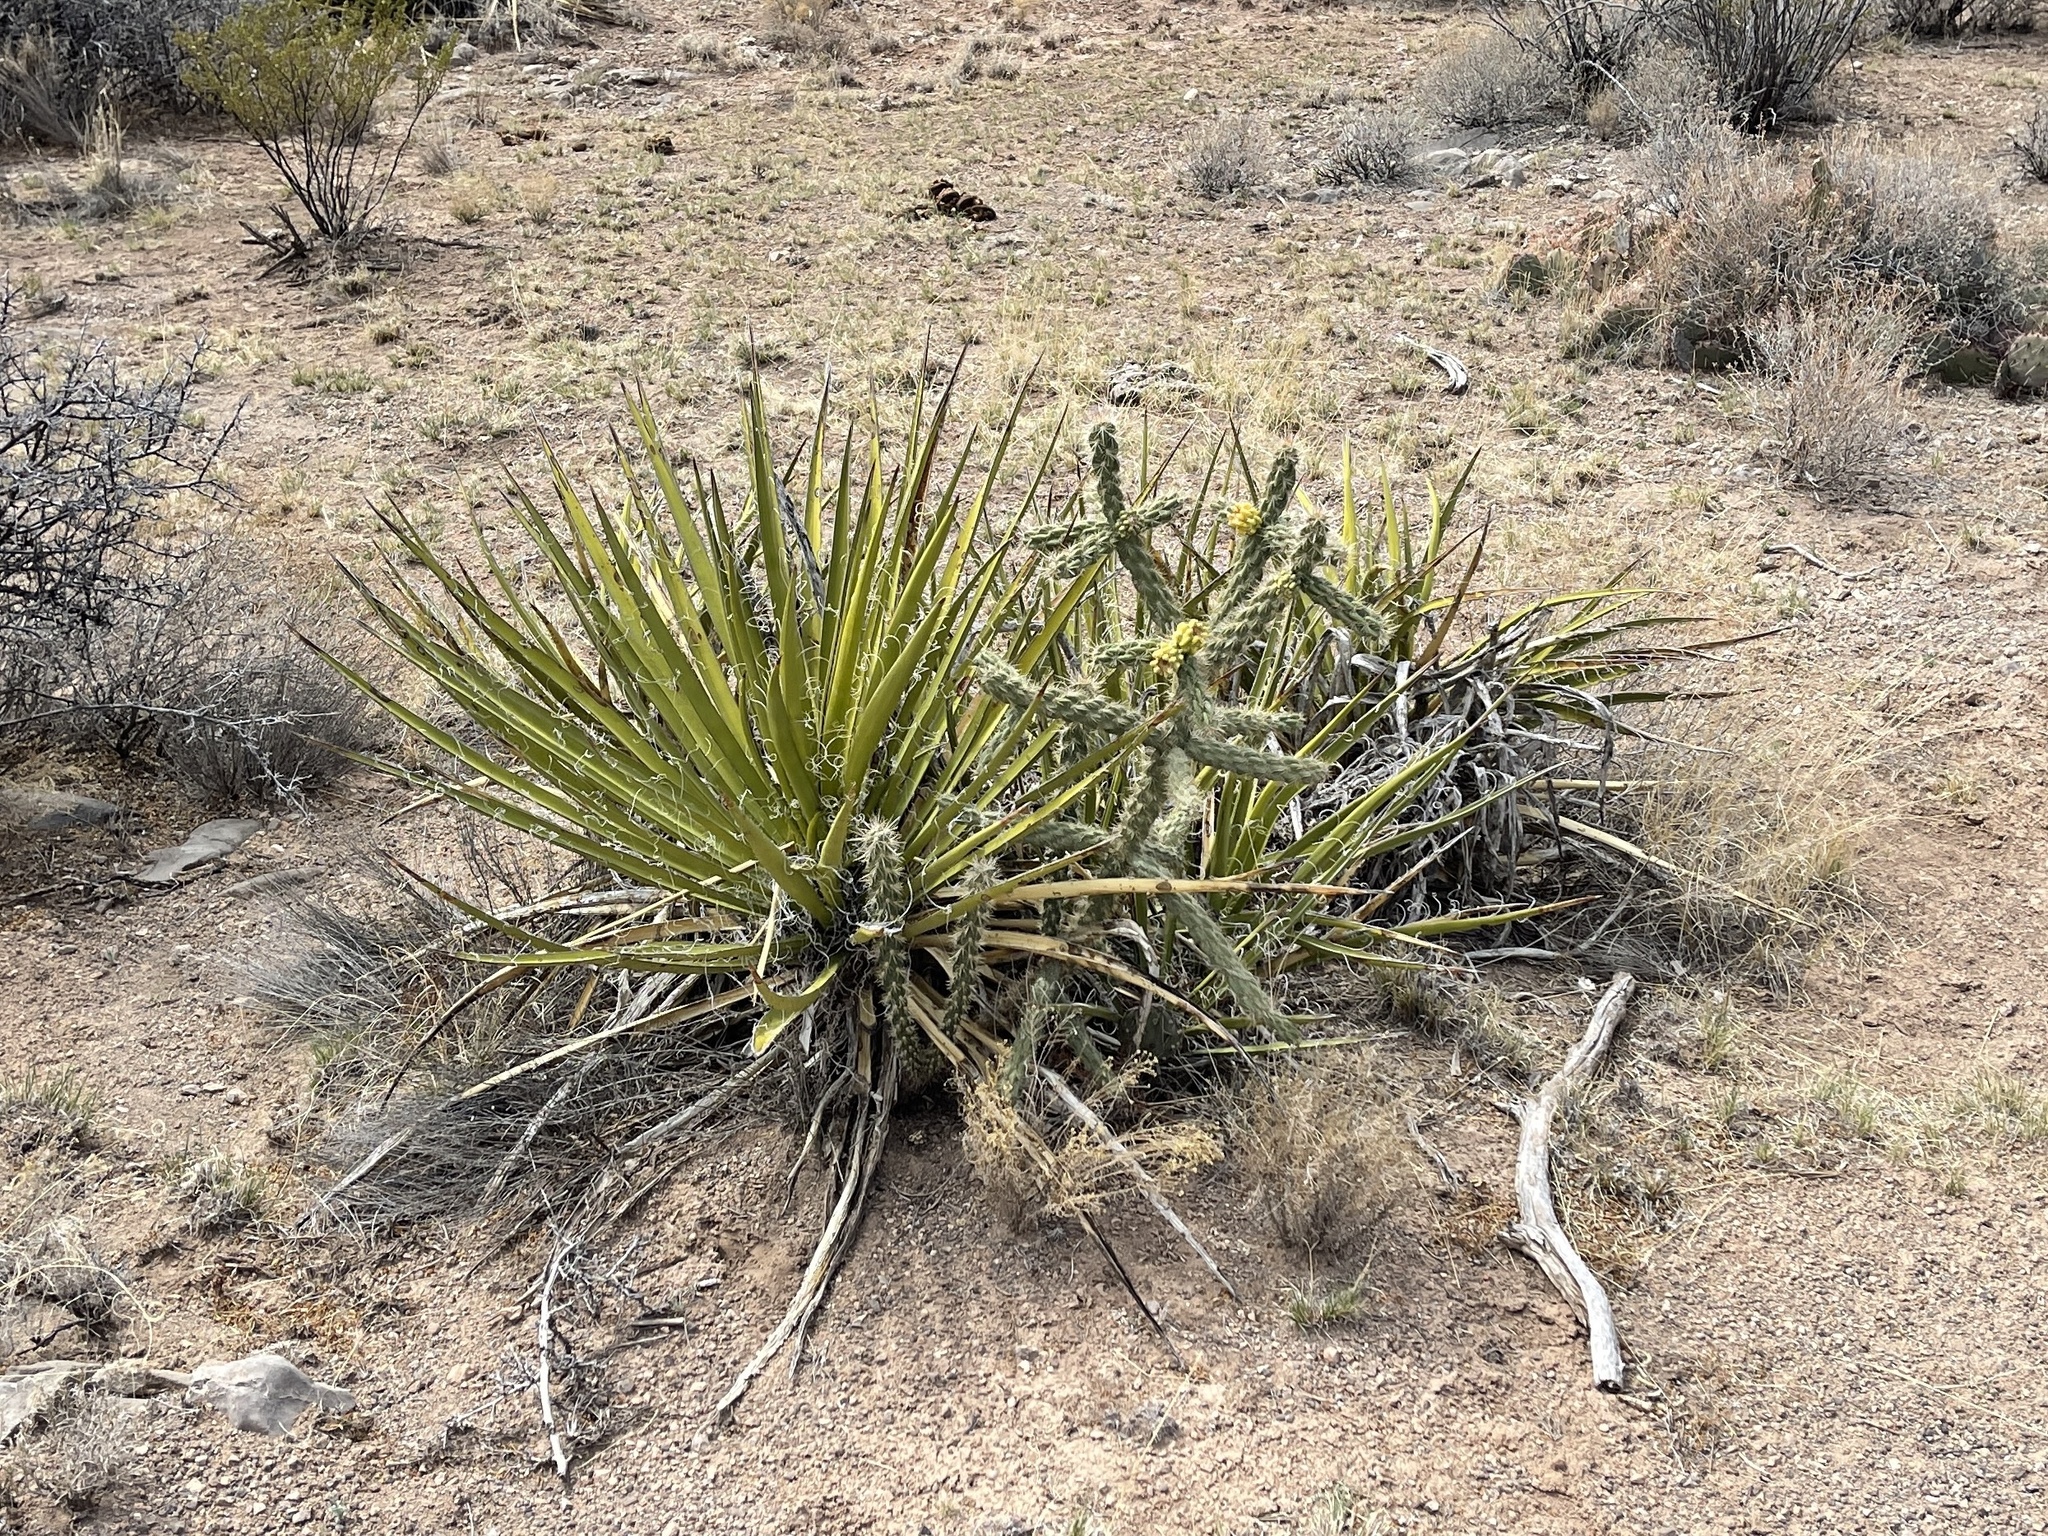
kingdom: Plantae
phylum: Tracheophyta
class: Liliopsida
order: Asparagales
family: Asparagaceae
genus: Yucca
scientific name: Yucca baccata
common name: Banana yucca
